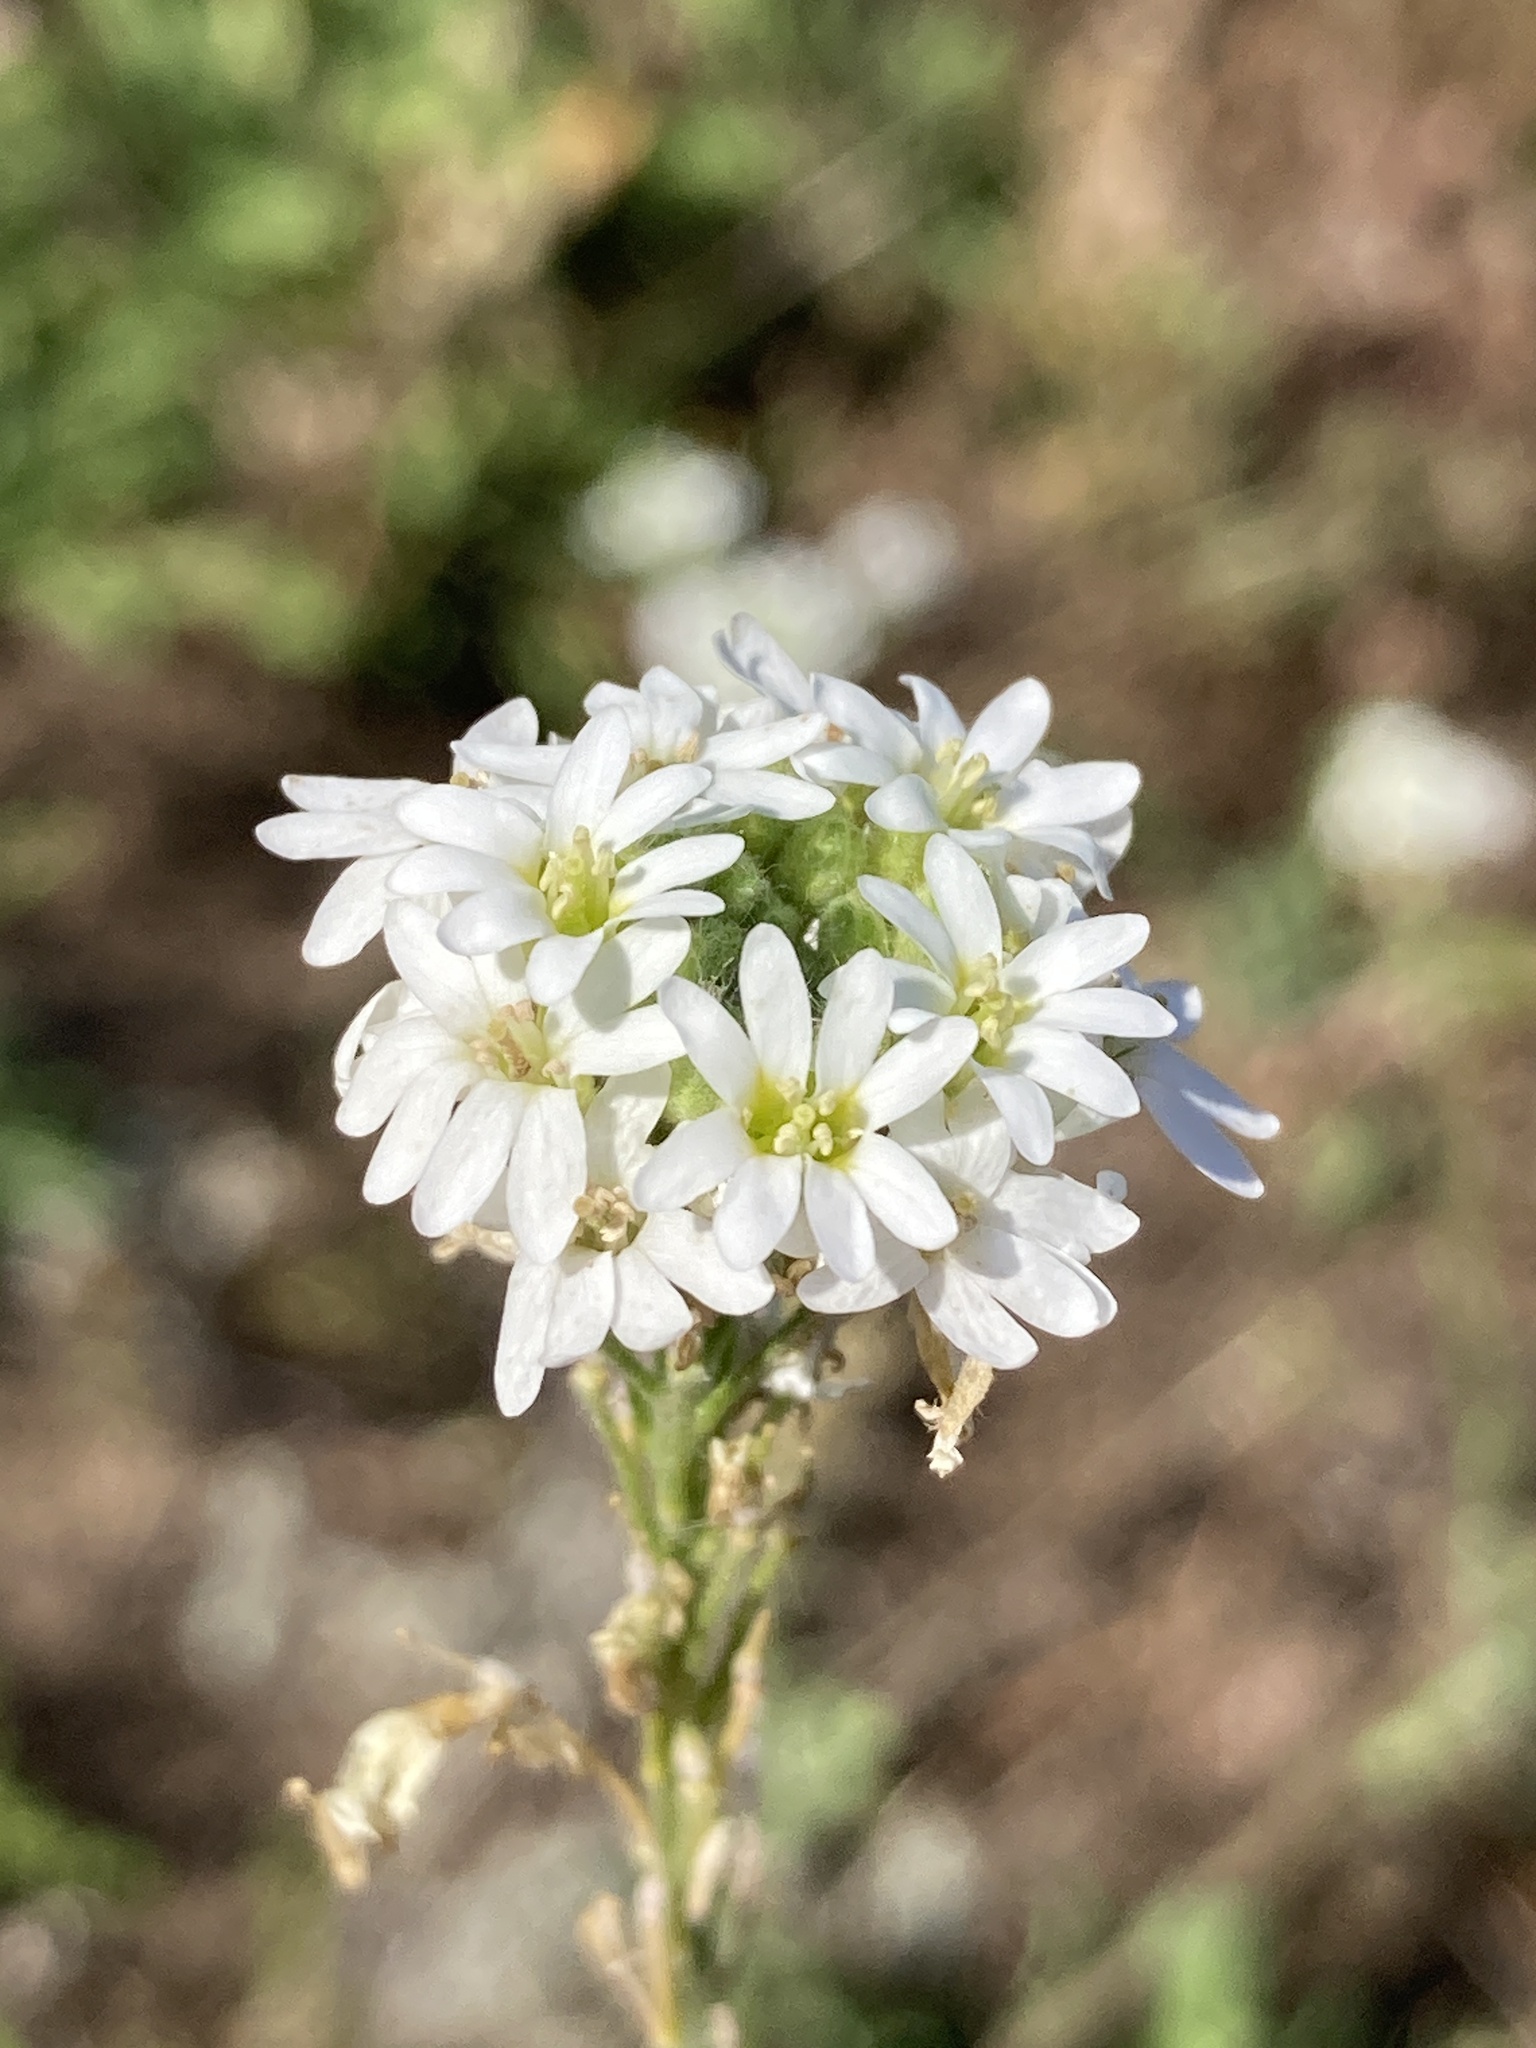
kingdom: Plantae
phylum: Tracheophyta
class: Magnoliopsida
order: Brassicales
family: Brassicaceae
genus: Berteroa
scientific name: Berteroa incana
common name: Hoary alison
